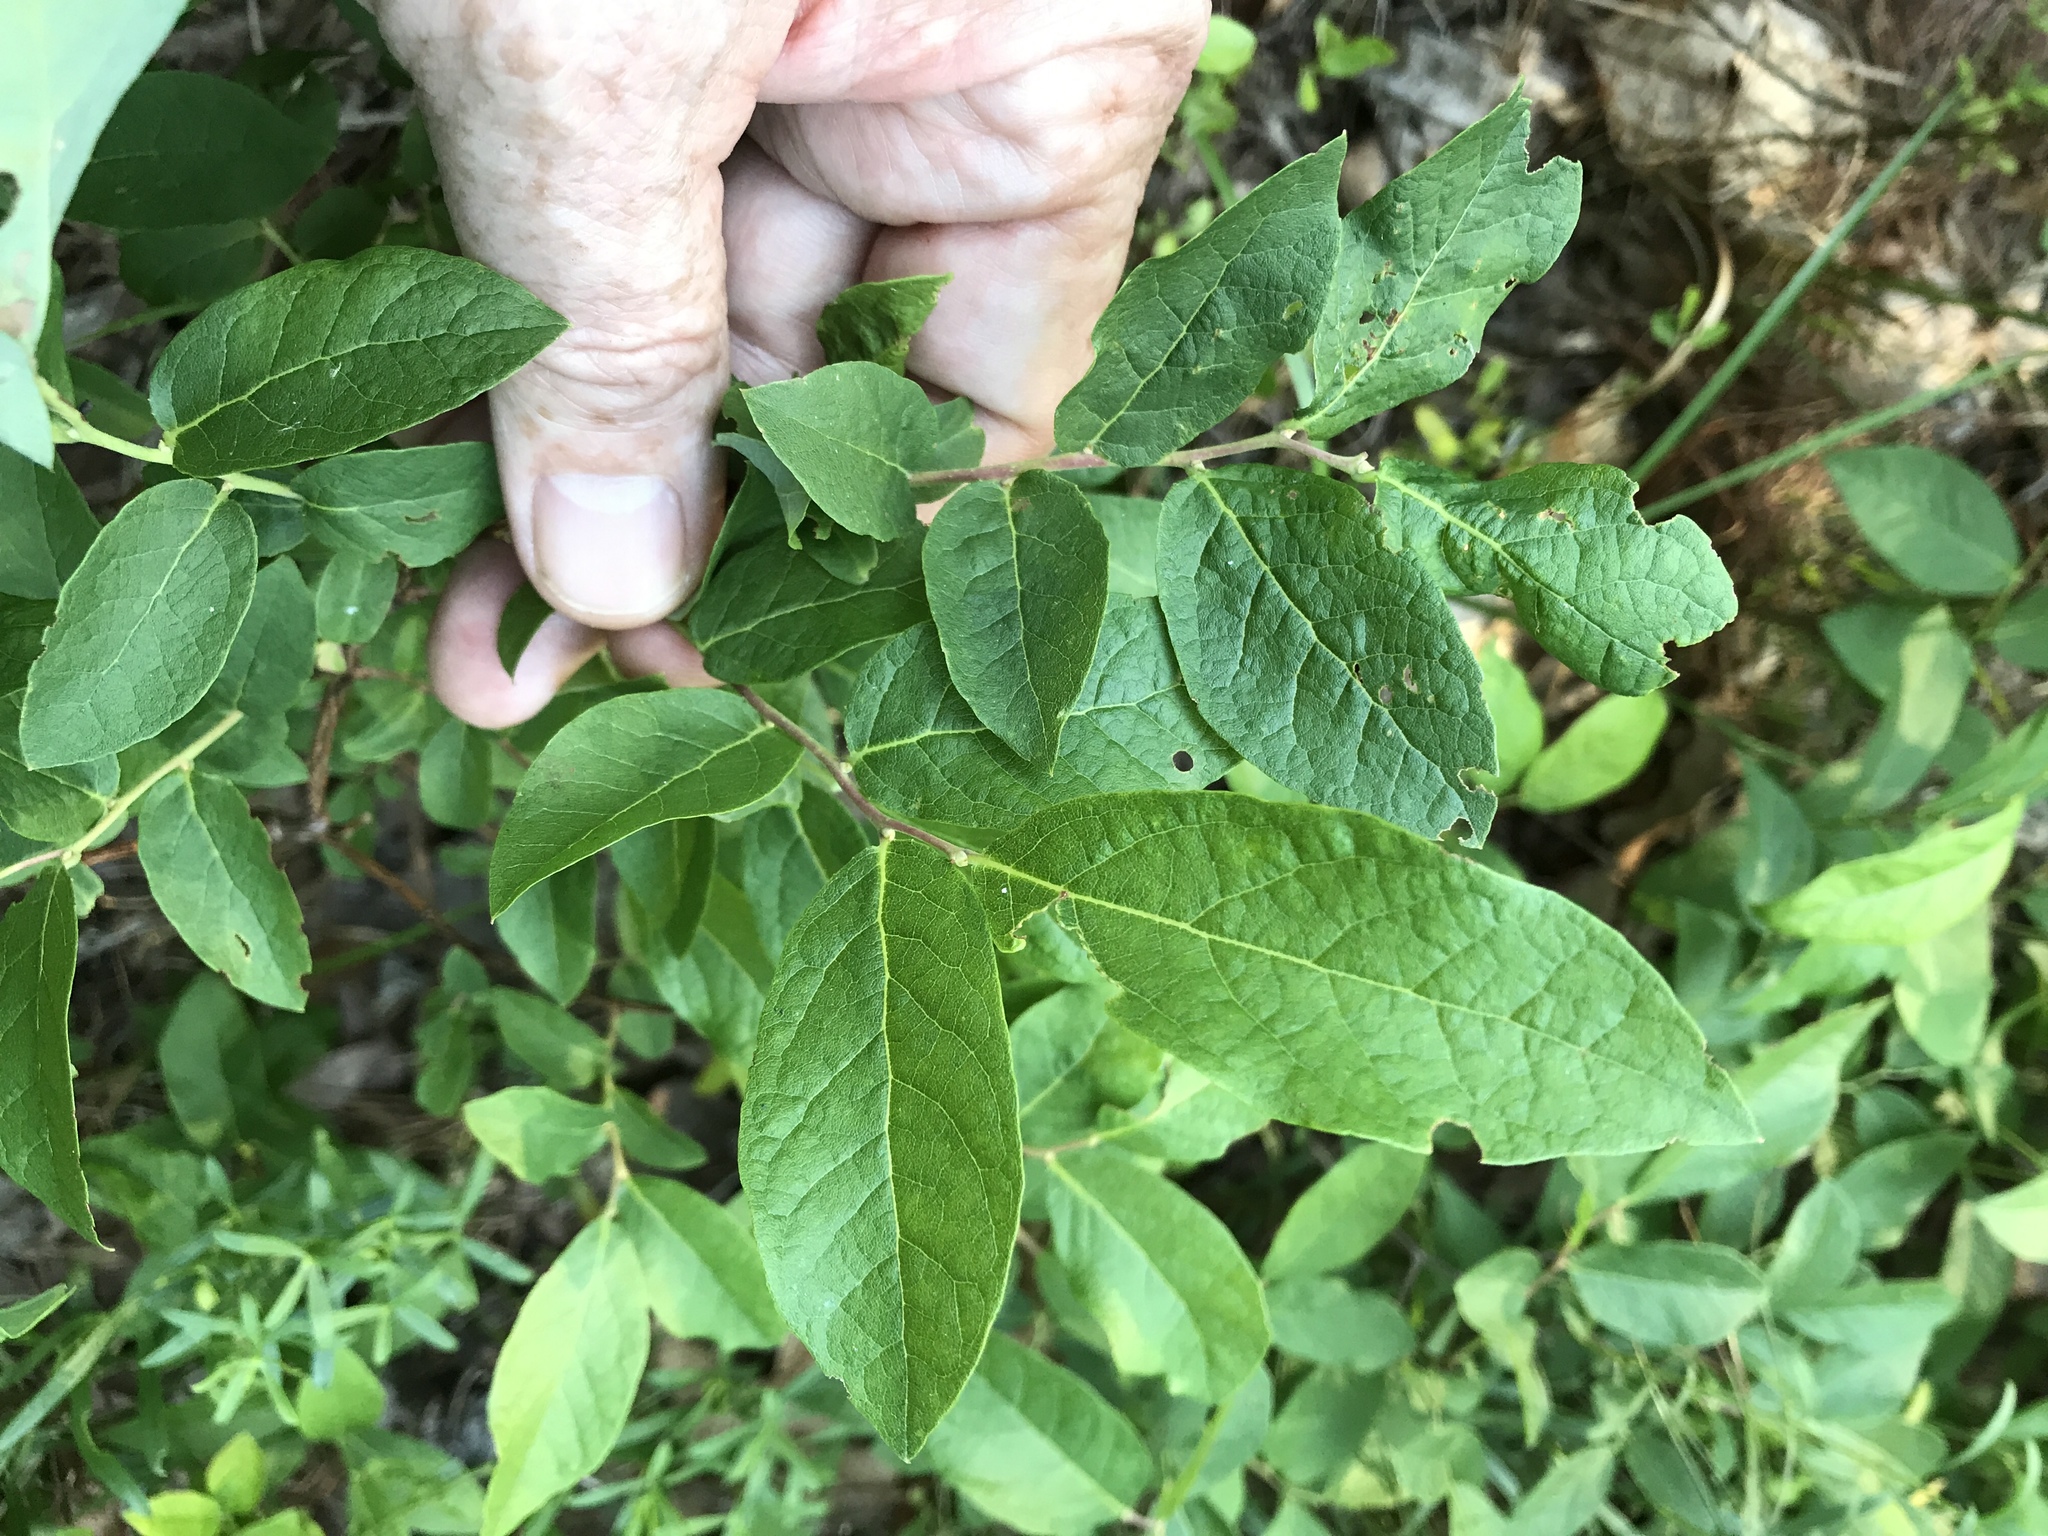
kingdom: Plantae
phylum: Tracheophyta
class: Magnoliopsida
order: Ericales
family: Ericaceae
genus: Vaccinium
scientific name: Vaccinium stamineum
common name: Deerberry
